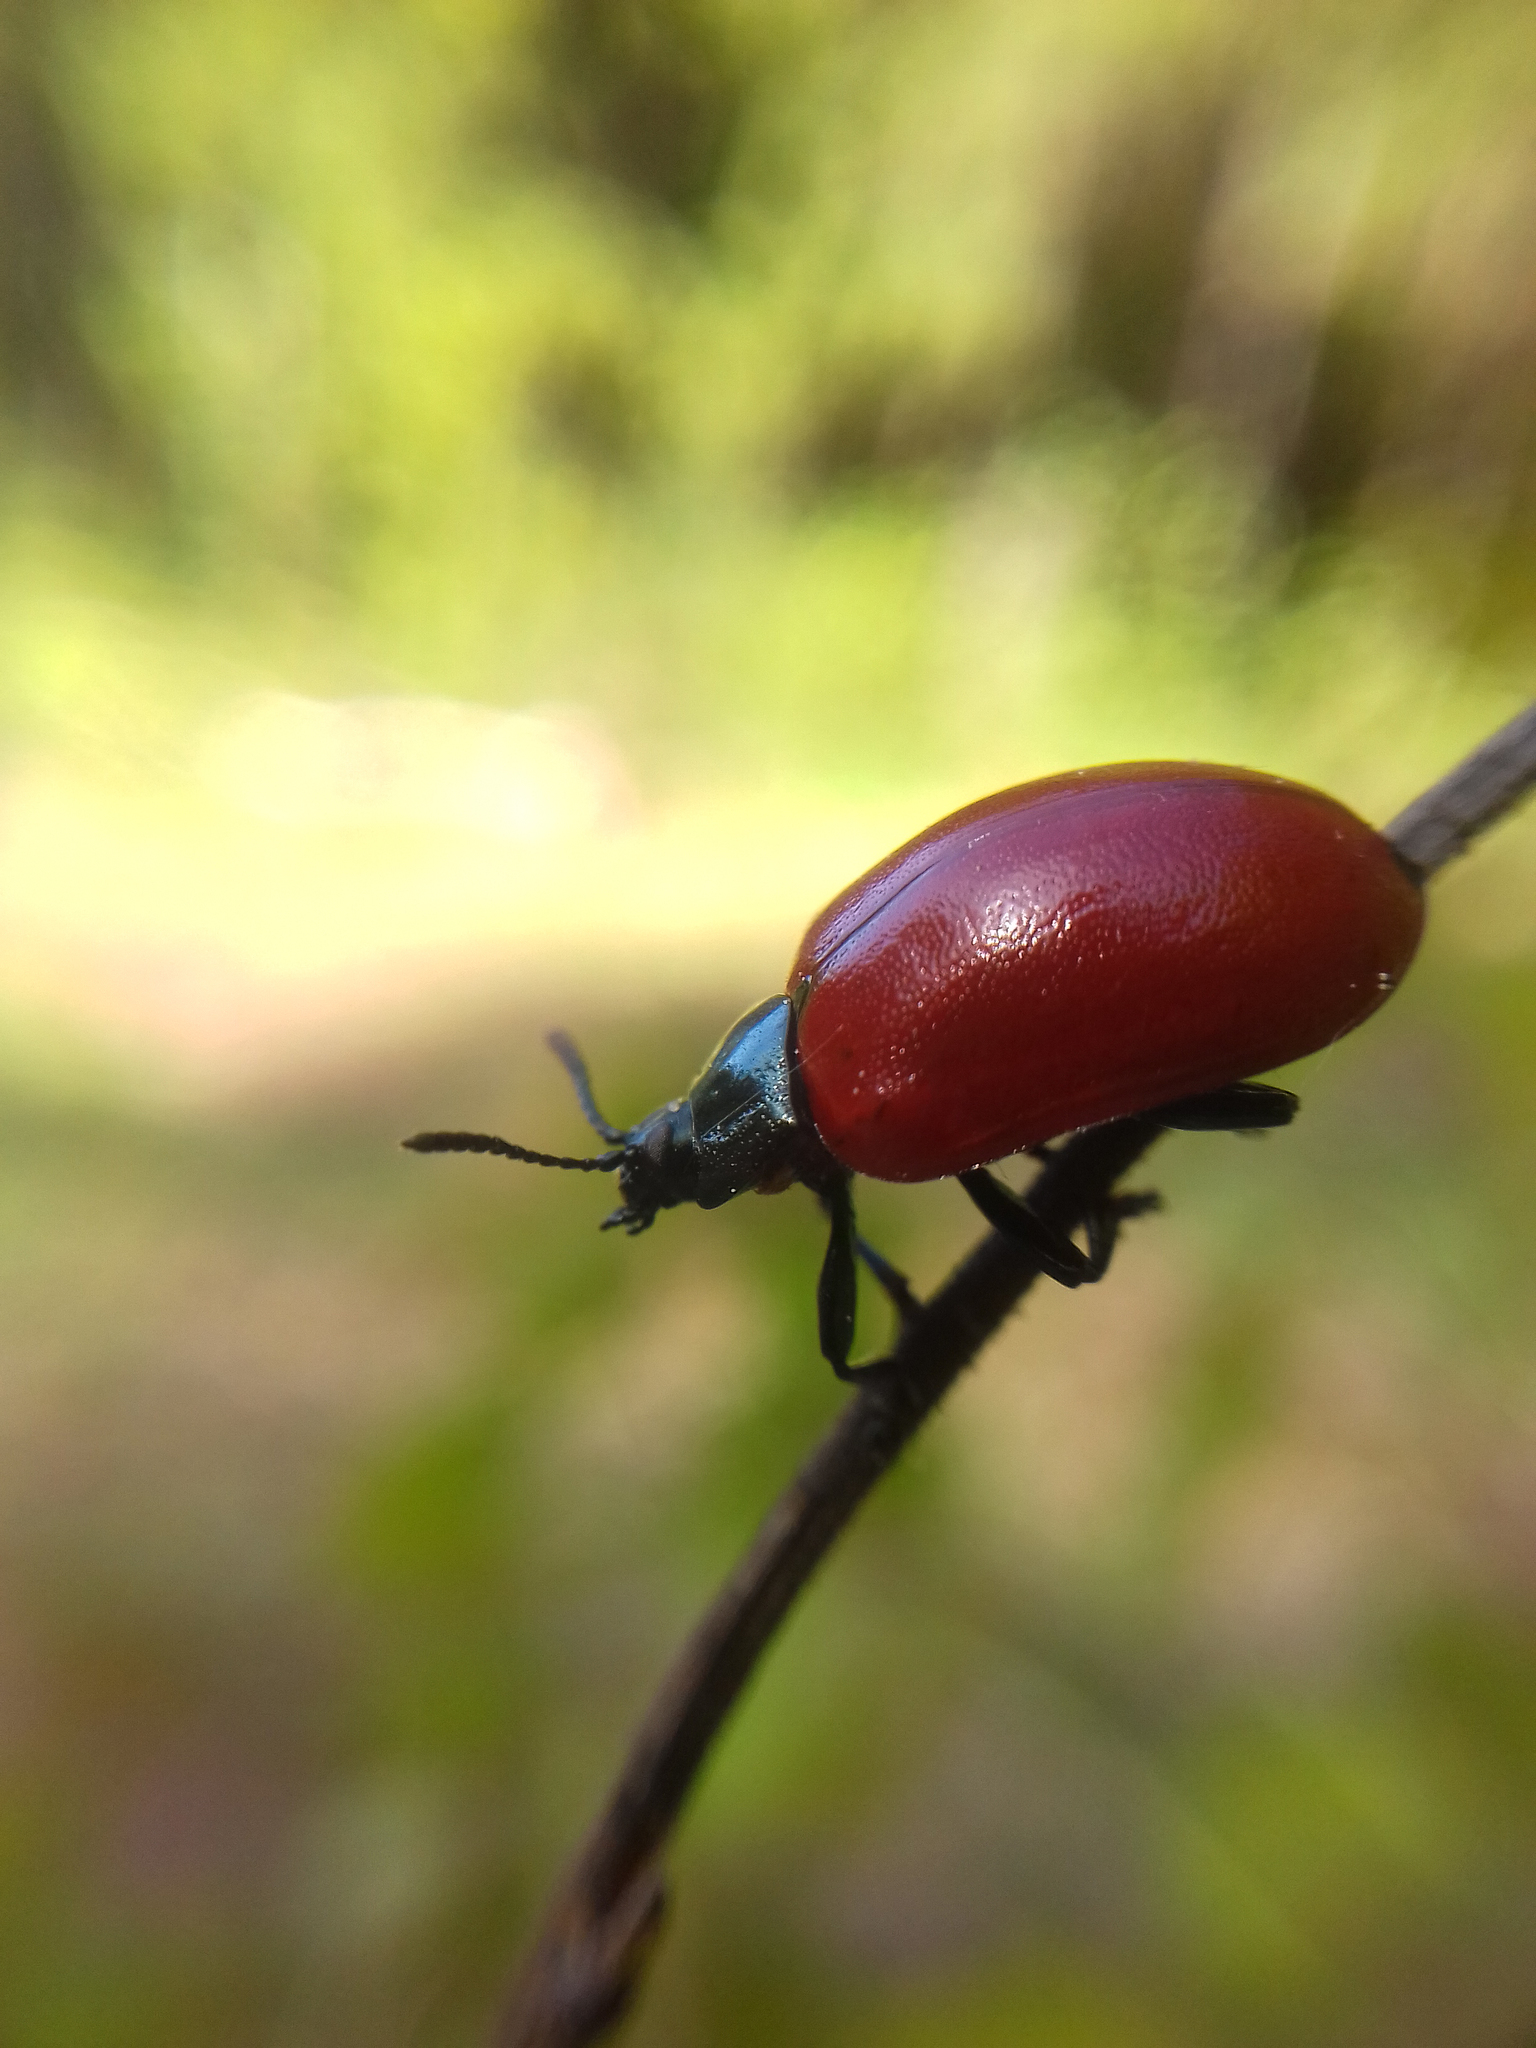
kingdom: Animalia
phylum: Arthropoda
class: Insecta
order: Coleoptera
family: Chrysomelidae
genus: Chrysomela
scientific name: Chrysomela populi
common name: Red poplar leaf beetle
